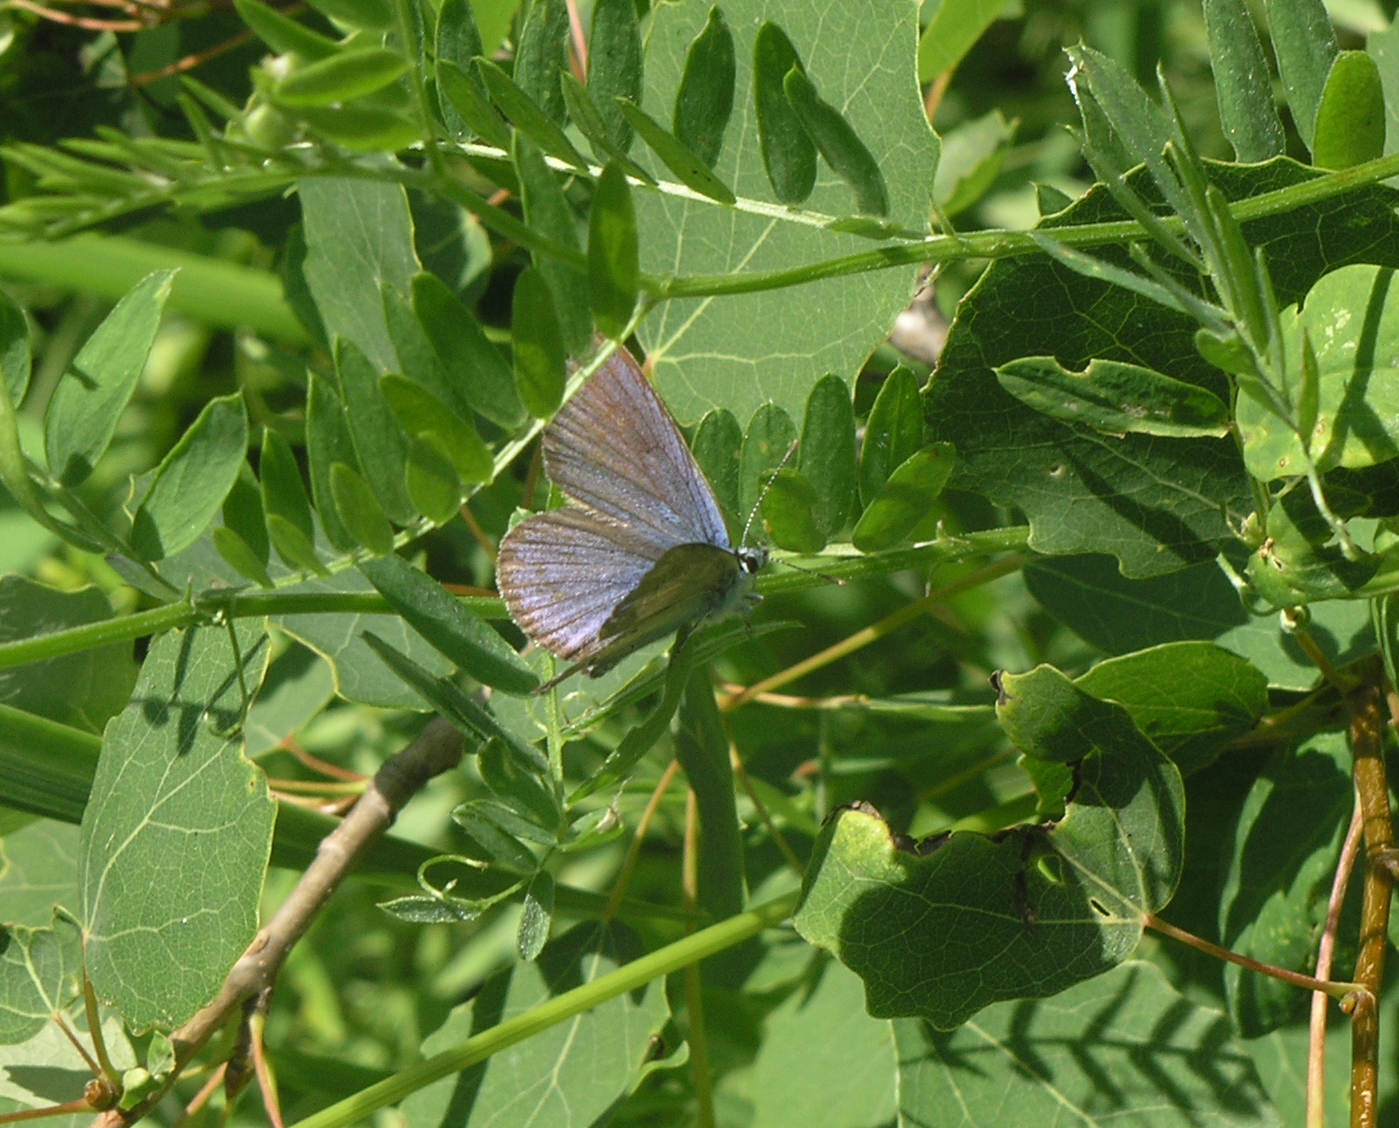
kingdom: Animalia
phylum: Arthropoda
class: Insecta
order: Lepidoptera
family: Lycaenidae
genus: Cyaniris
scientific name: Cyaniris semiargus
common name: Mazarine blue
